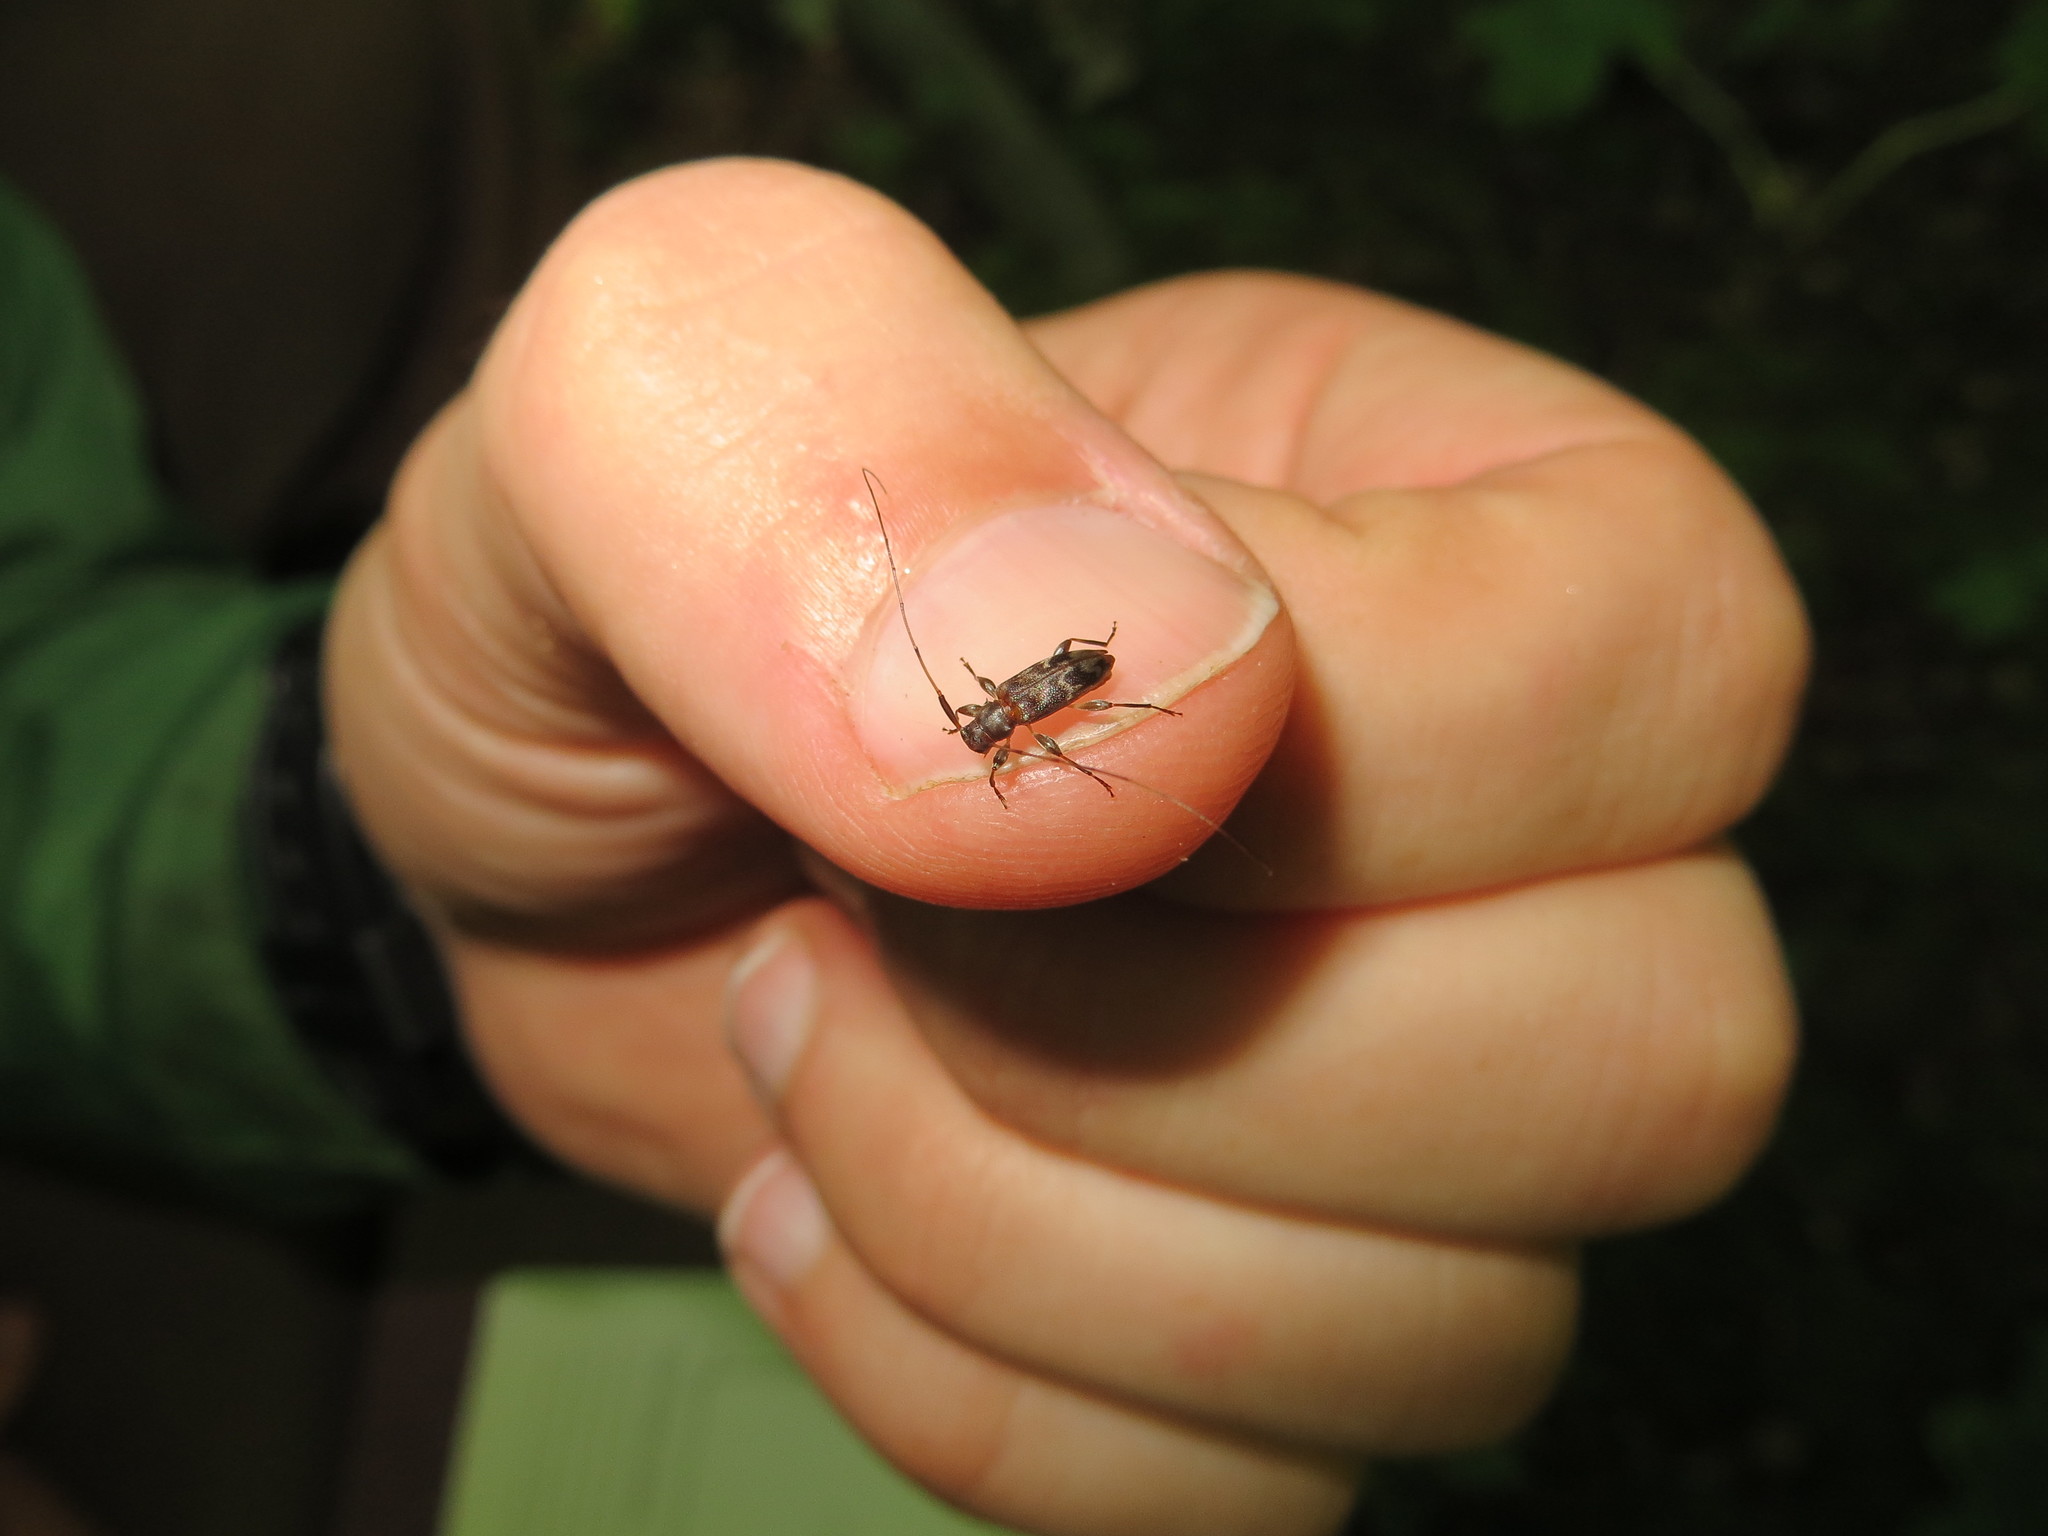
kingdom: Animalia
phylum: Arthropoda
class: Insecta
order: Coleoptera
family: Cerambycidae
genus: Urgleptes
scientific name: Urgleptes querci
